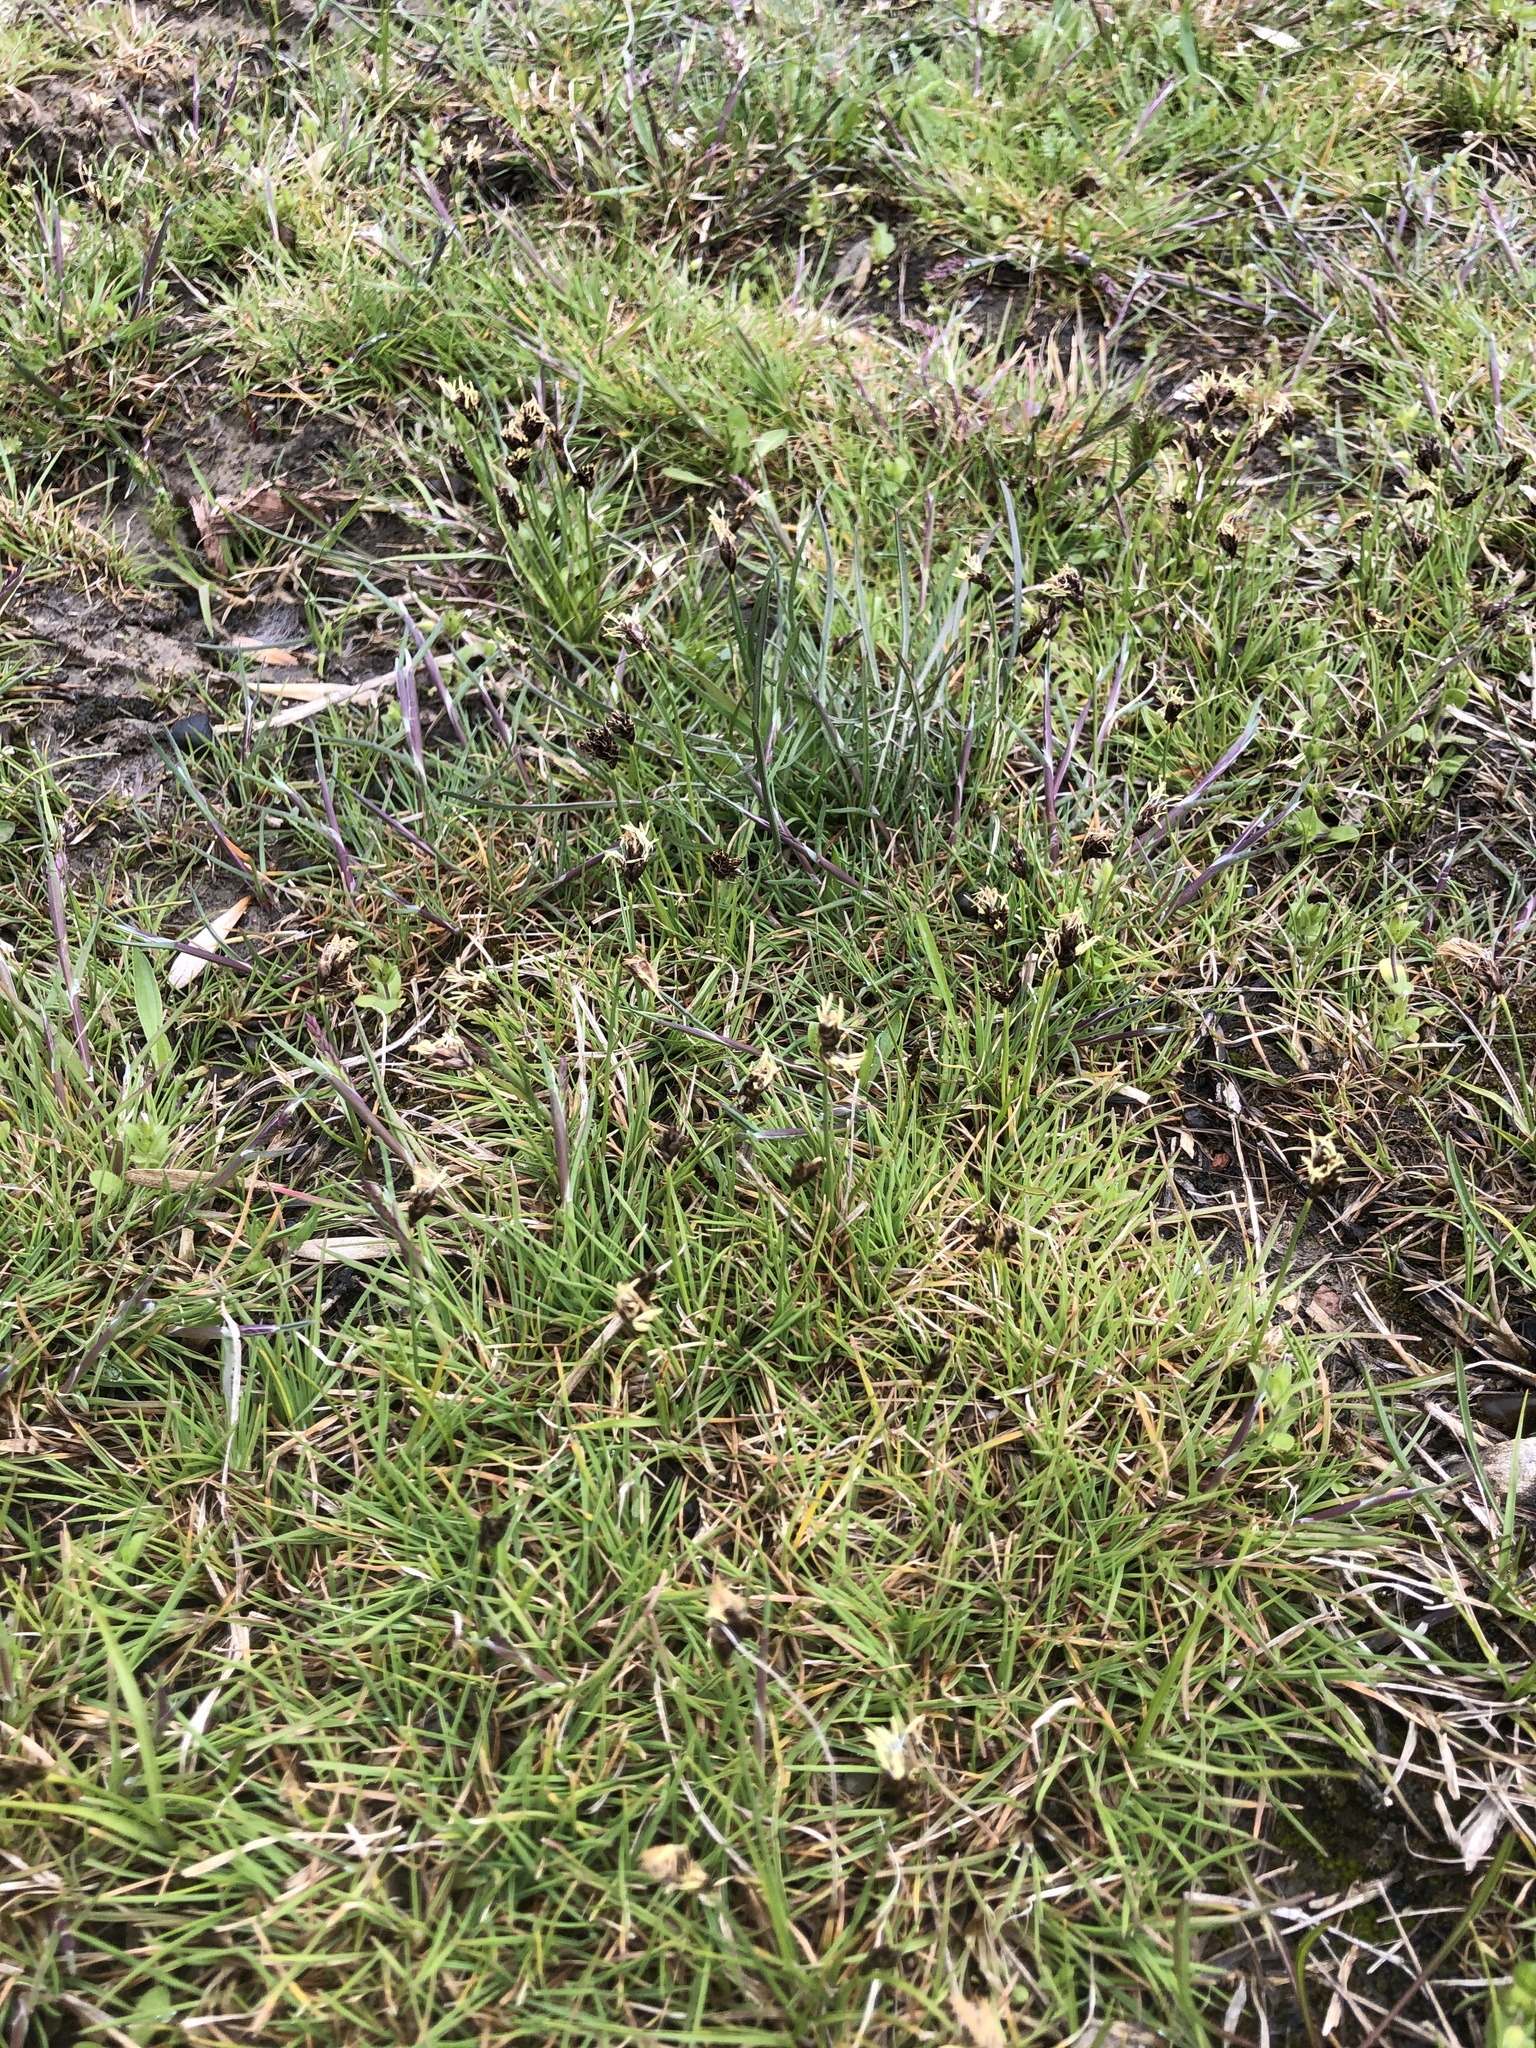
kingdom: Plantae
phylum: Tracheophyta
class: Liliopsida
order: Poales
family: Cyperaceae
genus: Carex
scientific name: Carex stenophylla
